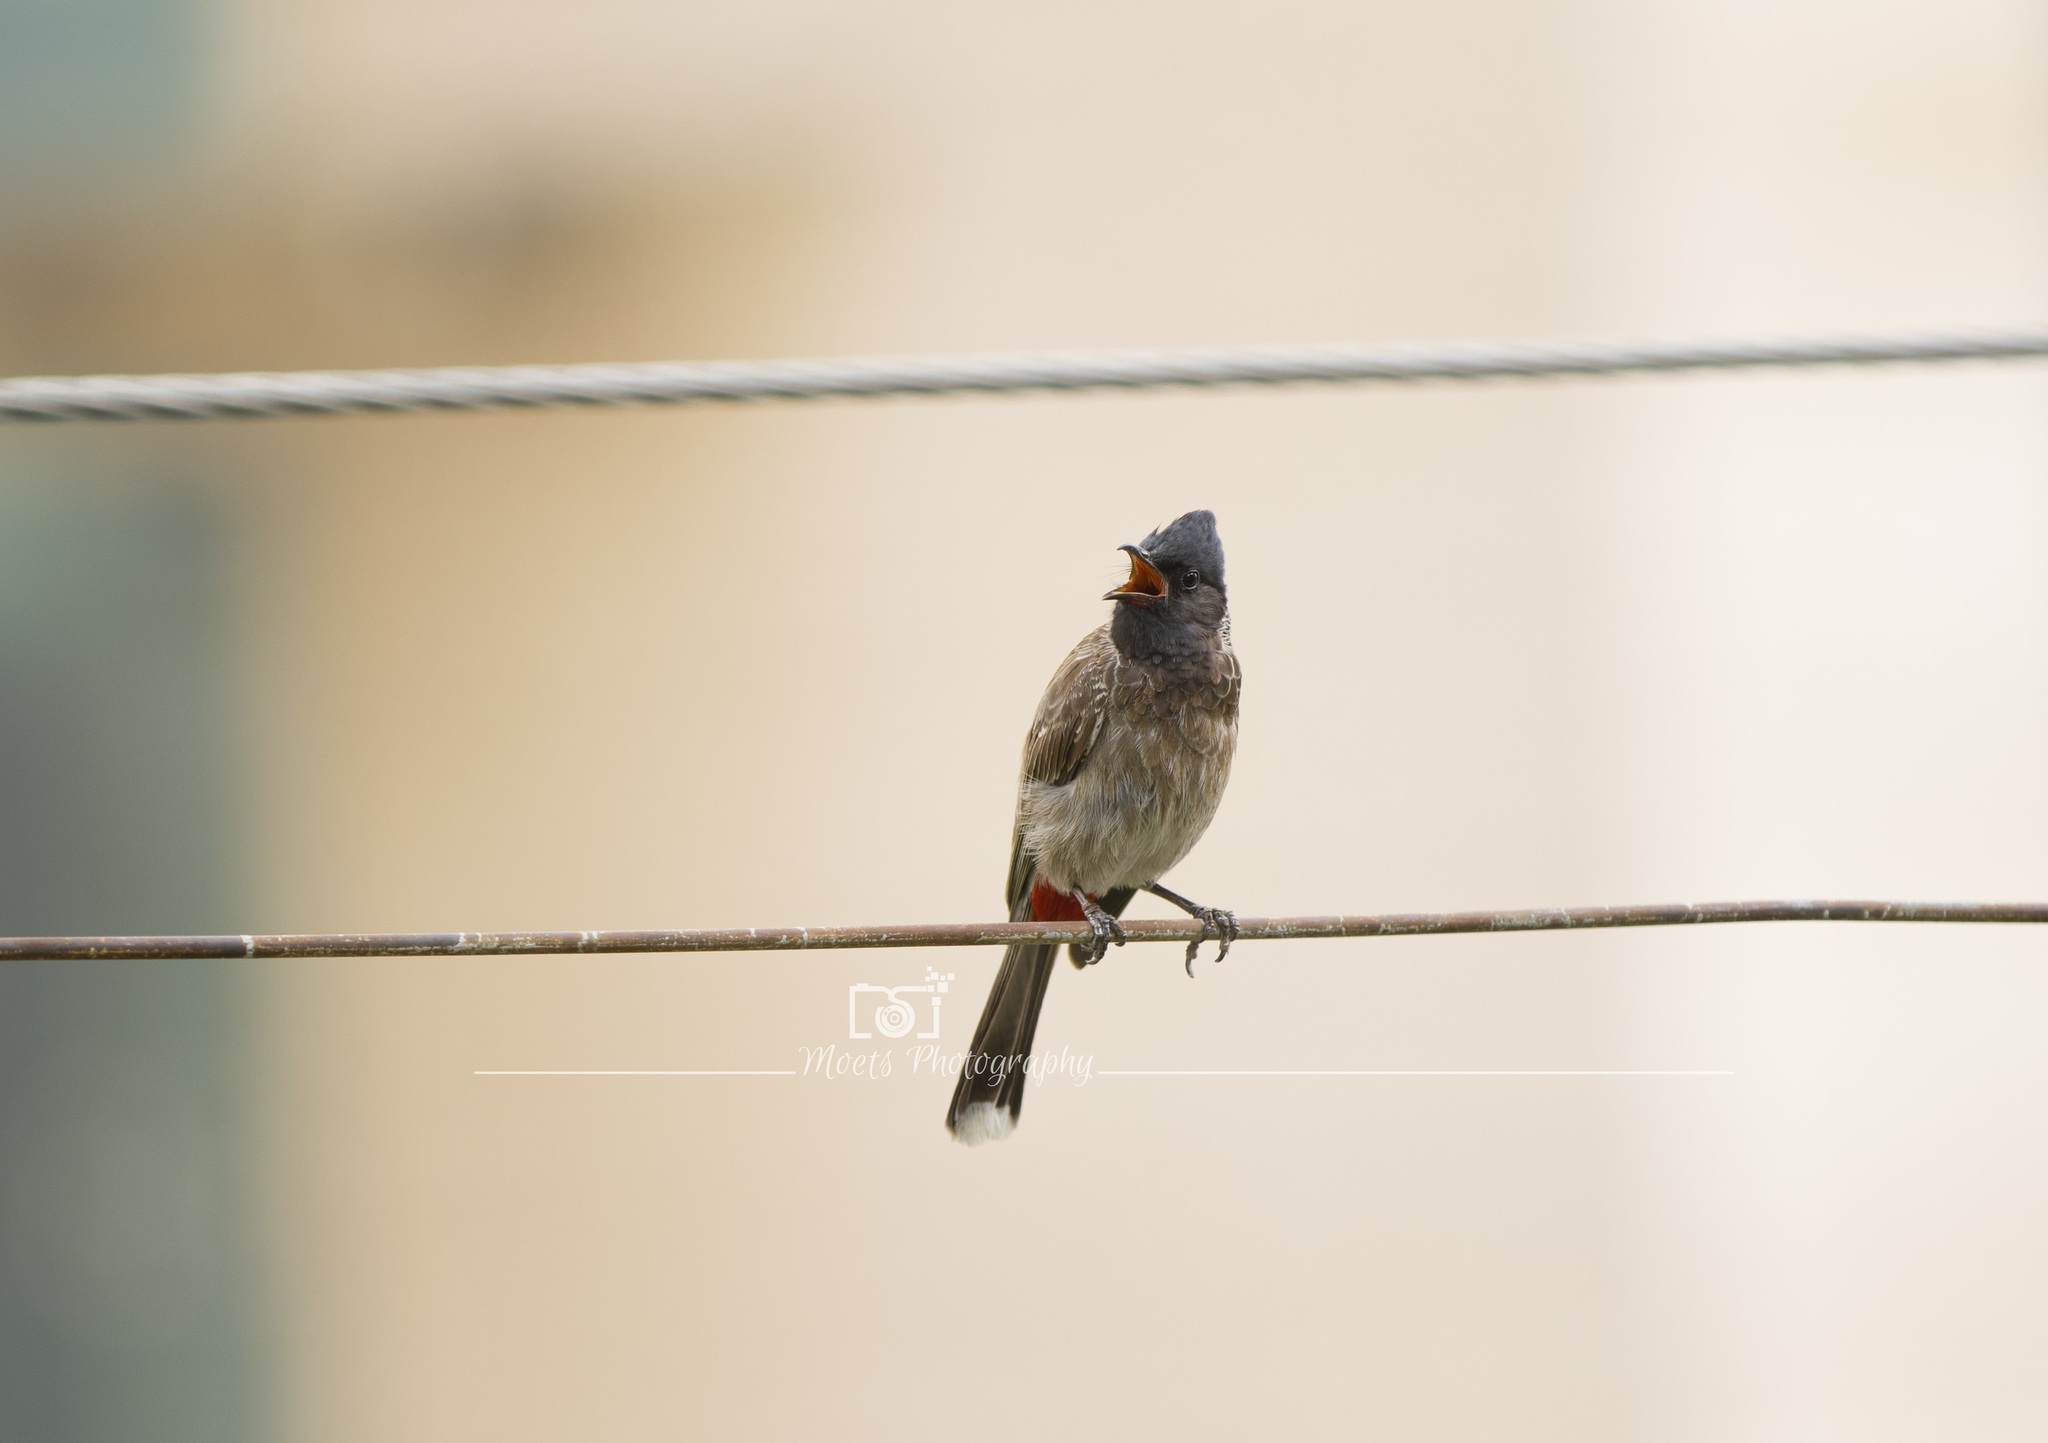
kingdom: Animalia
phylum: Chordata
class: Aves
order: Passeriformes
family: Pycnonotidae
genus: Pycnonotus
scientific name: Pycnonotus cafer
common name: Red-vented bulbul
